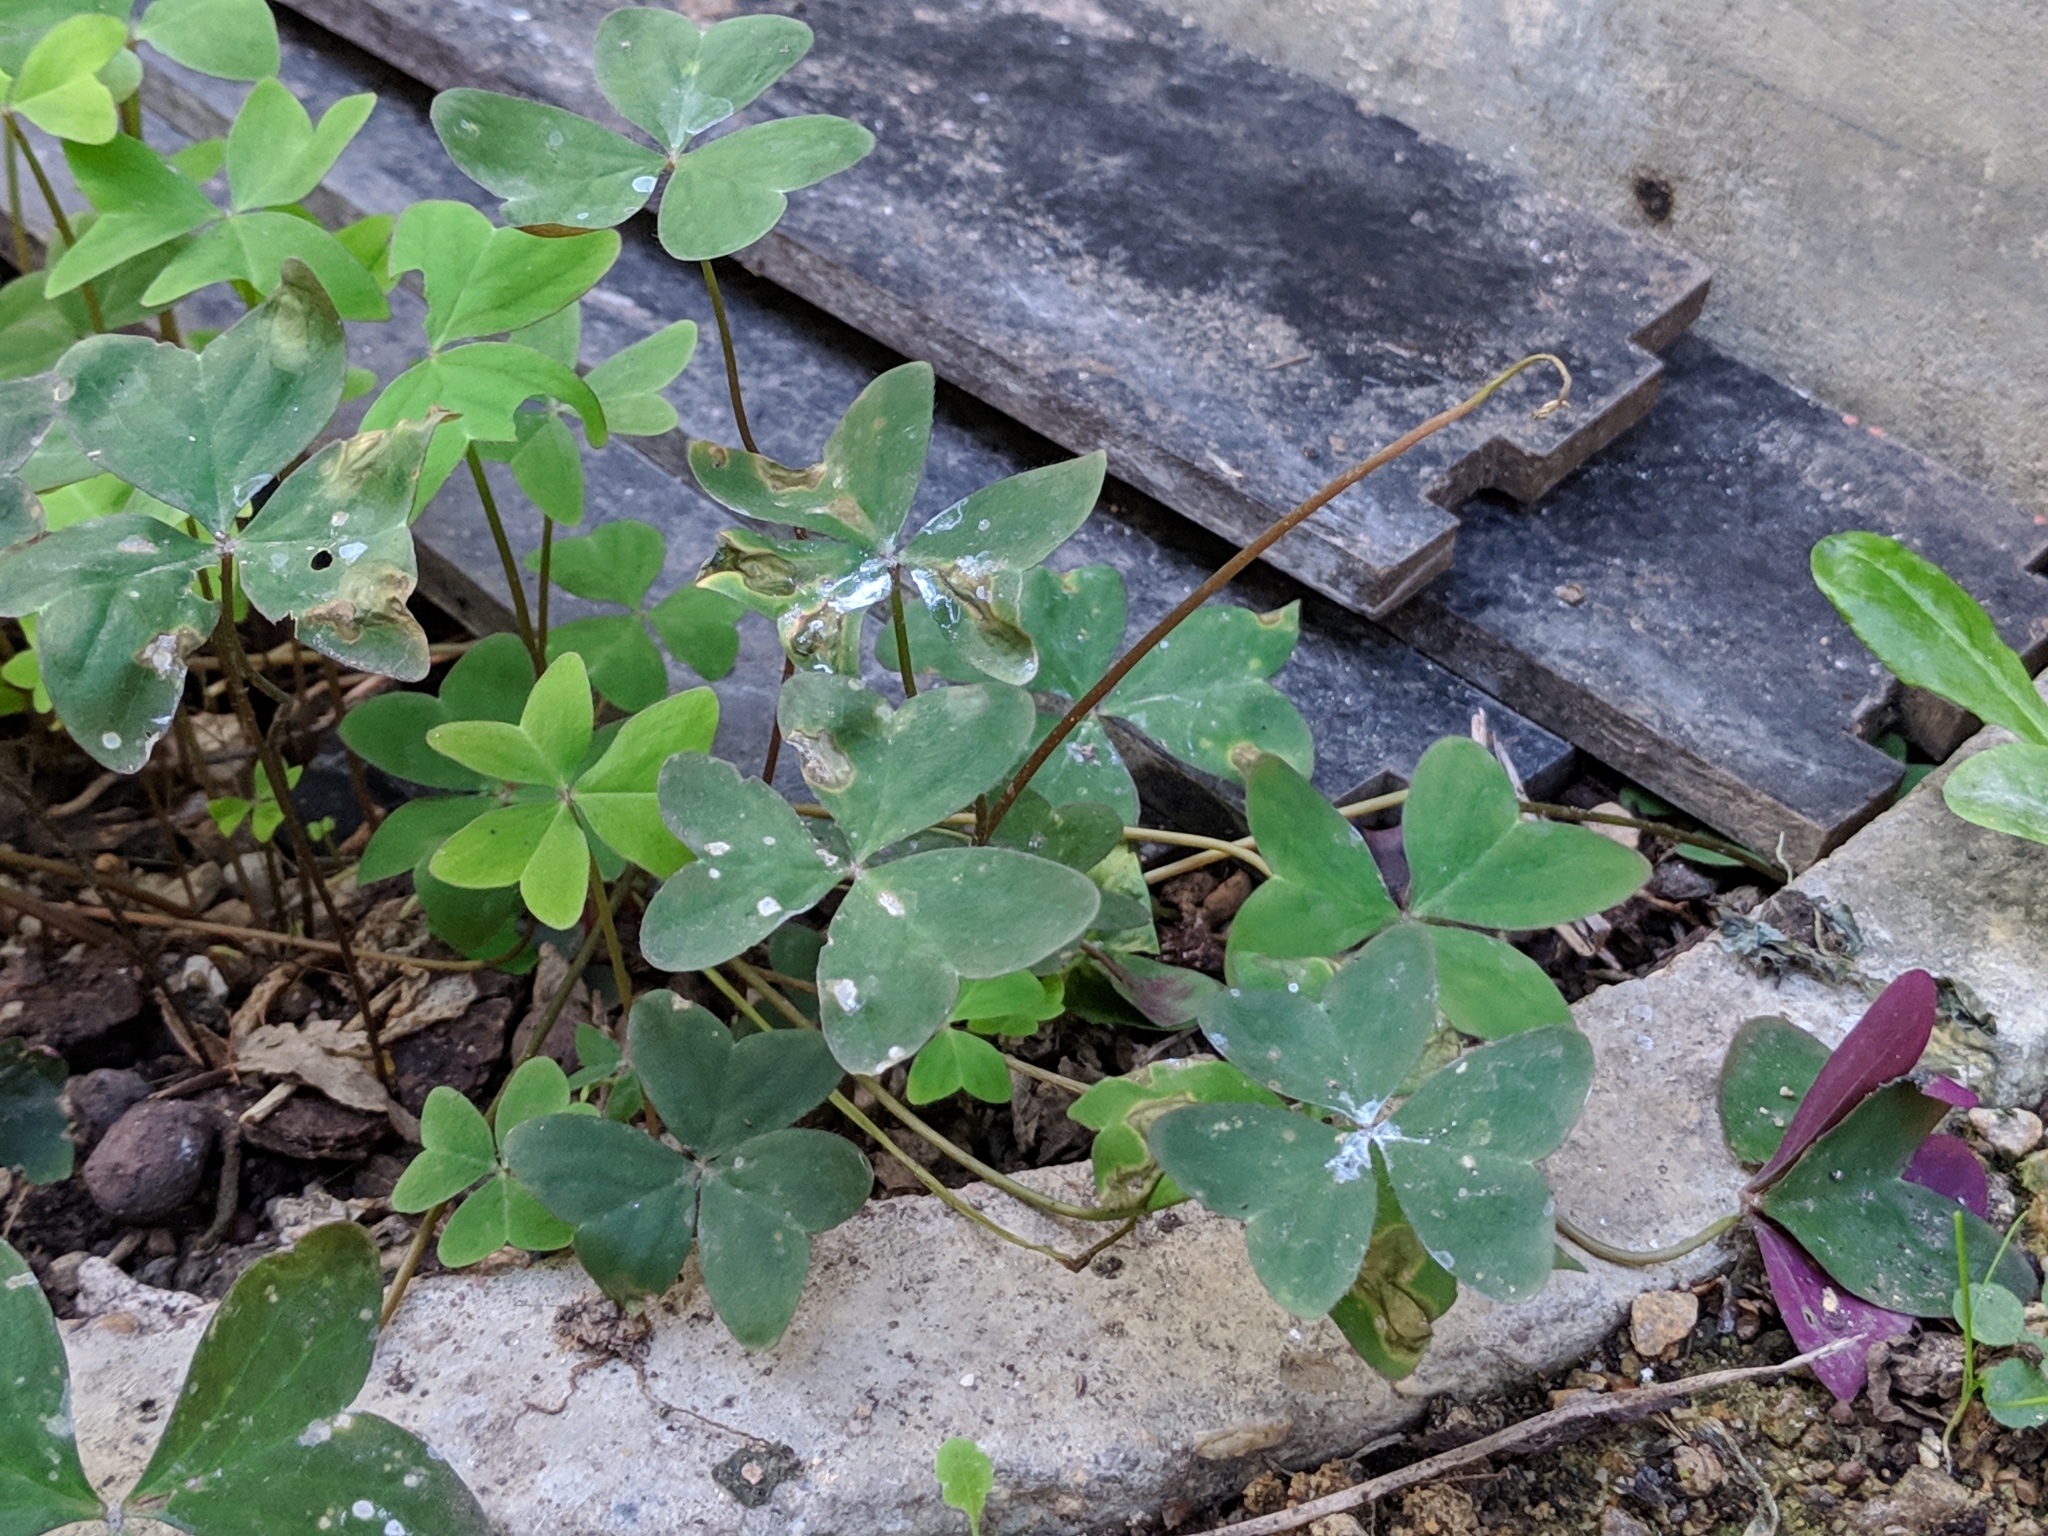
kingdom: Plantae
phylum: Tracheophyta
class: Magnoliopsida
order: Oxalidales
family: Oxalidaceae
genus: Oxalis
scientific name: Oxalis latifolia
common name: Garden pink-sorrel
